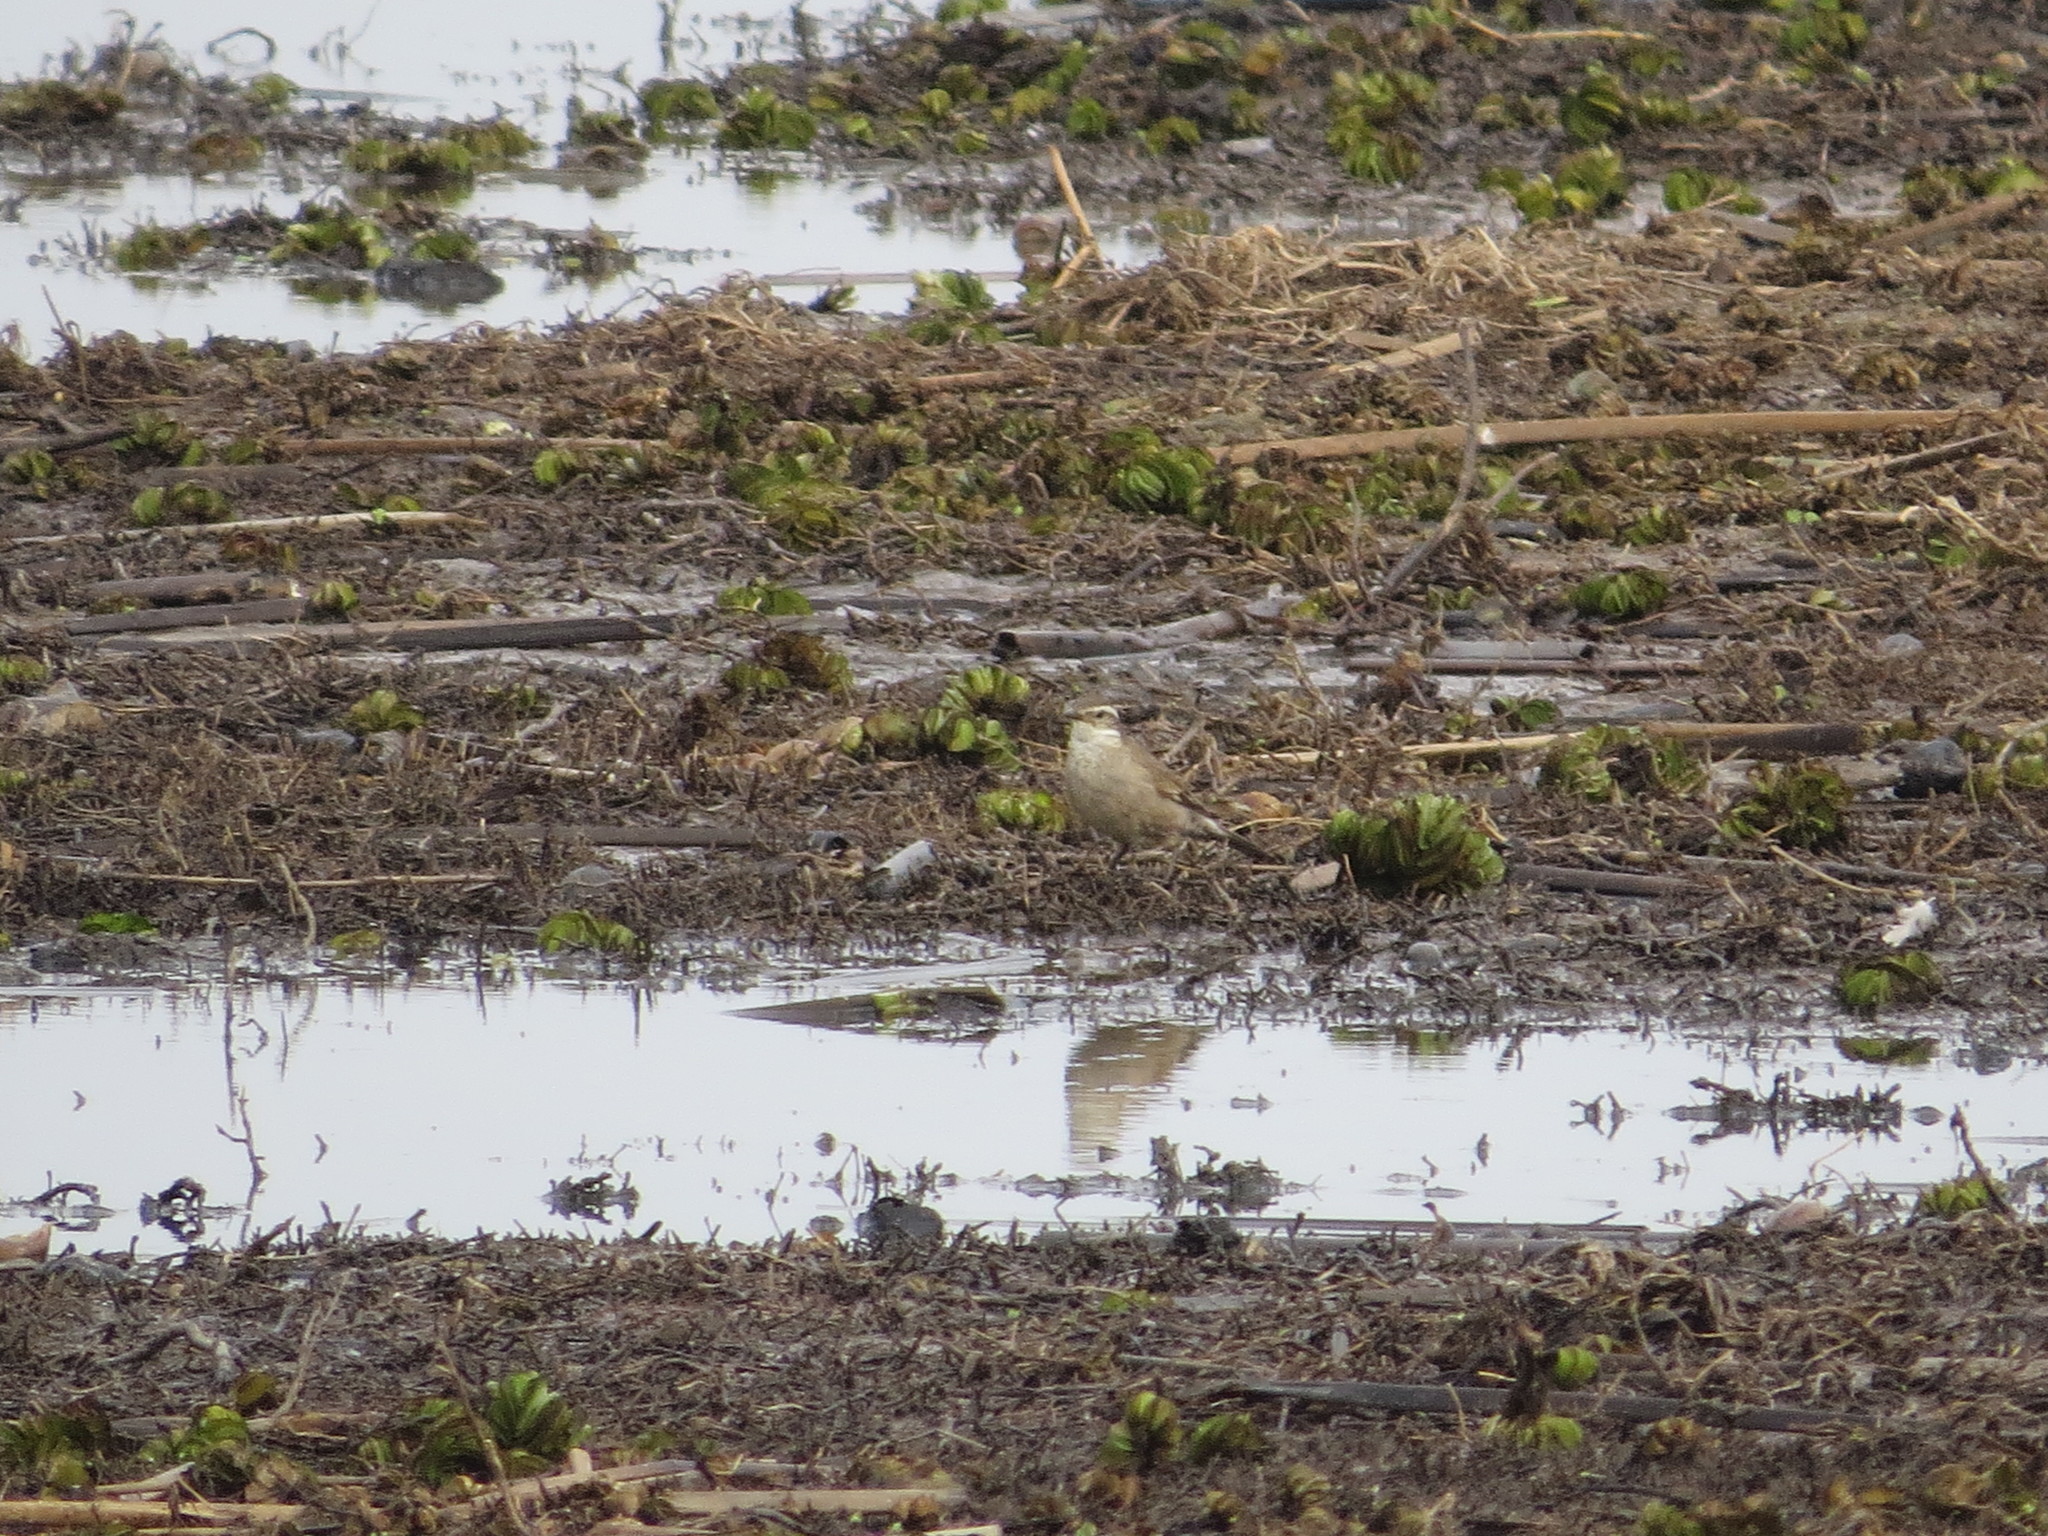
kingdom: Animalia
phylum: Chordata
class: Aves
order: Passeriformes
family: Furnariidae
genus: Cinclodes
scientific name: Cinclodes fuscus
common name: Buff-winged cinclodes
